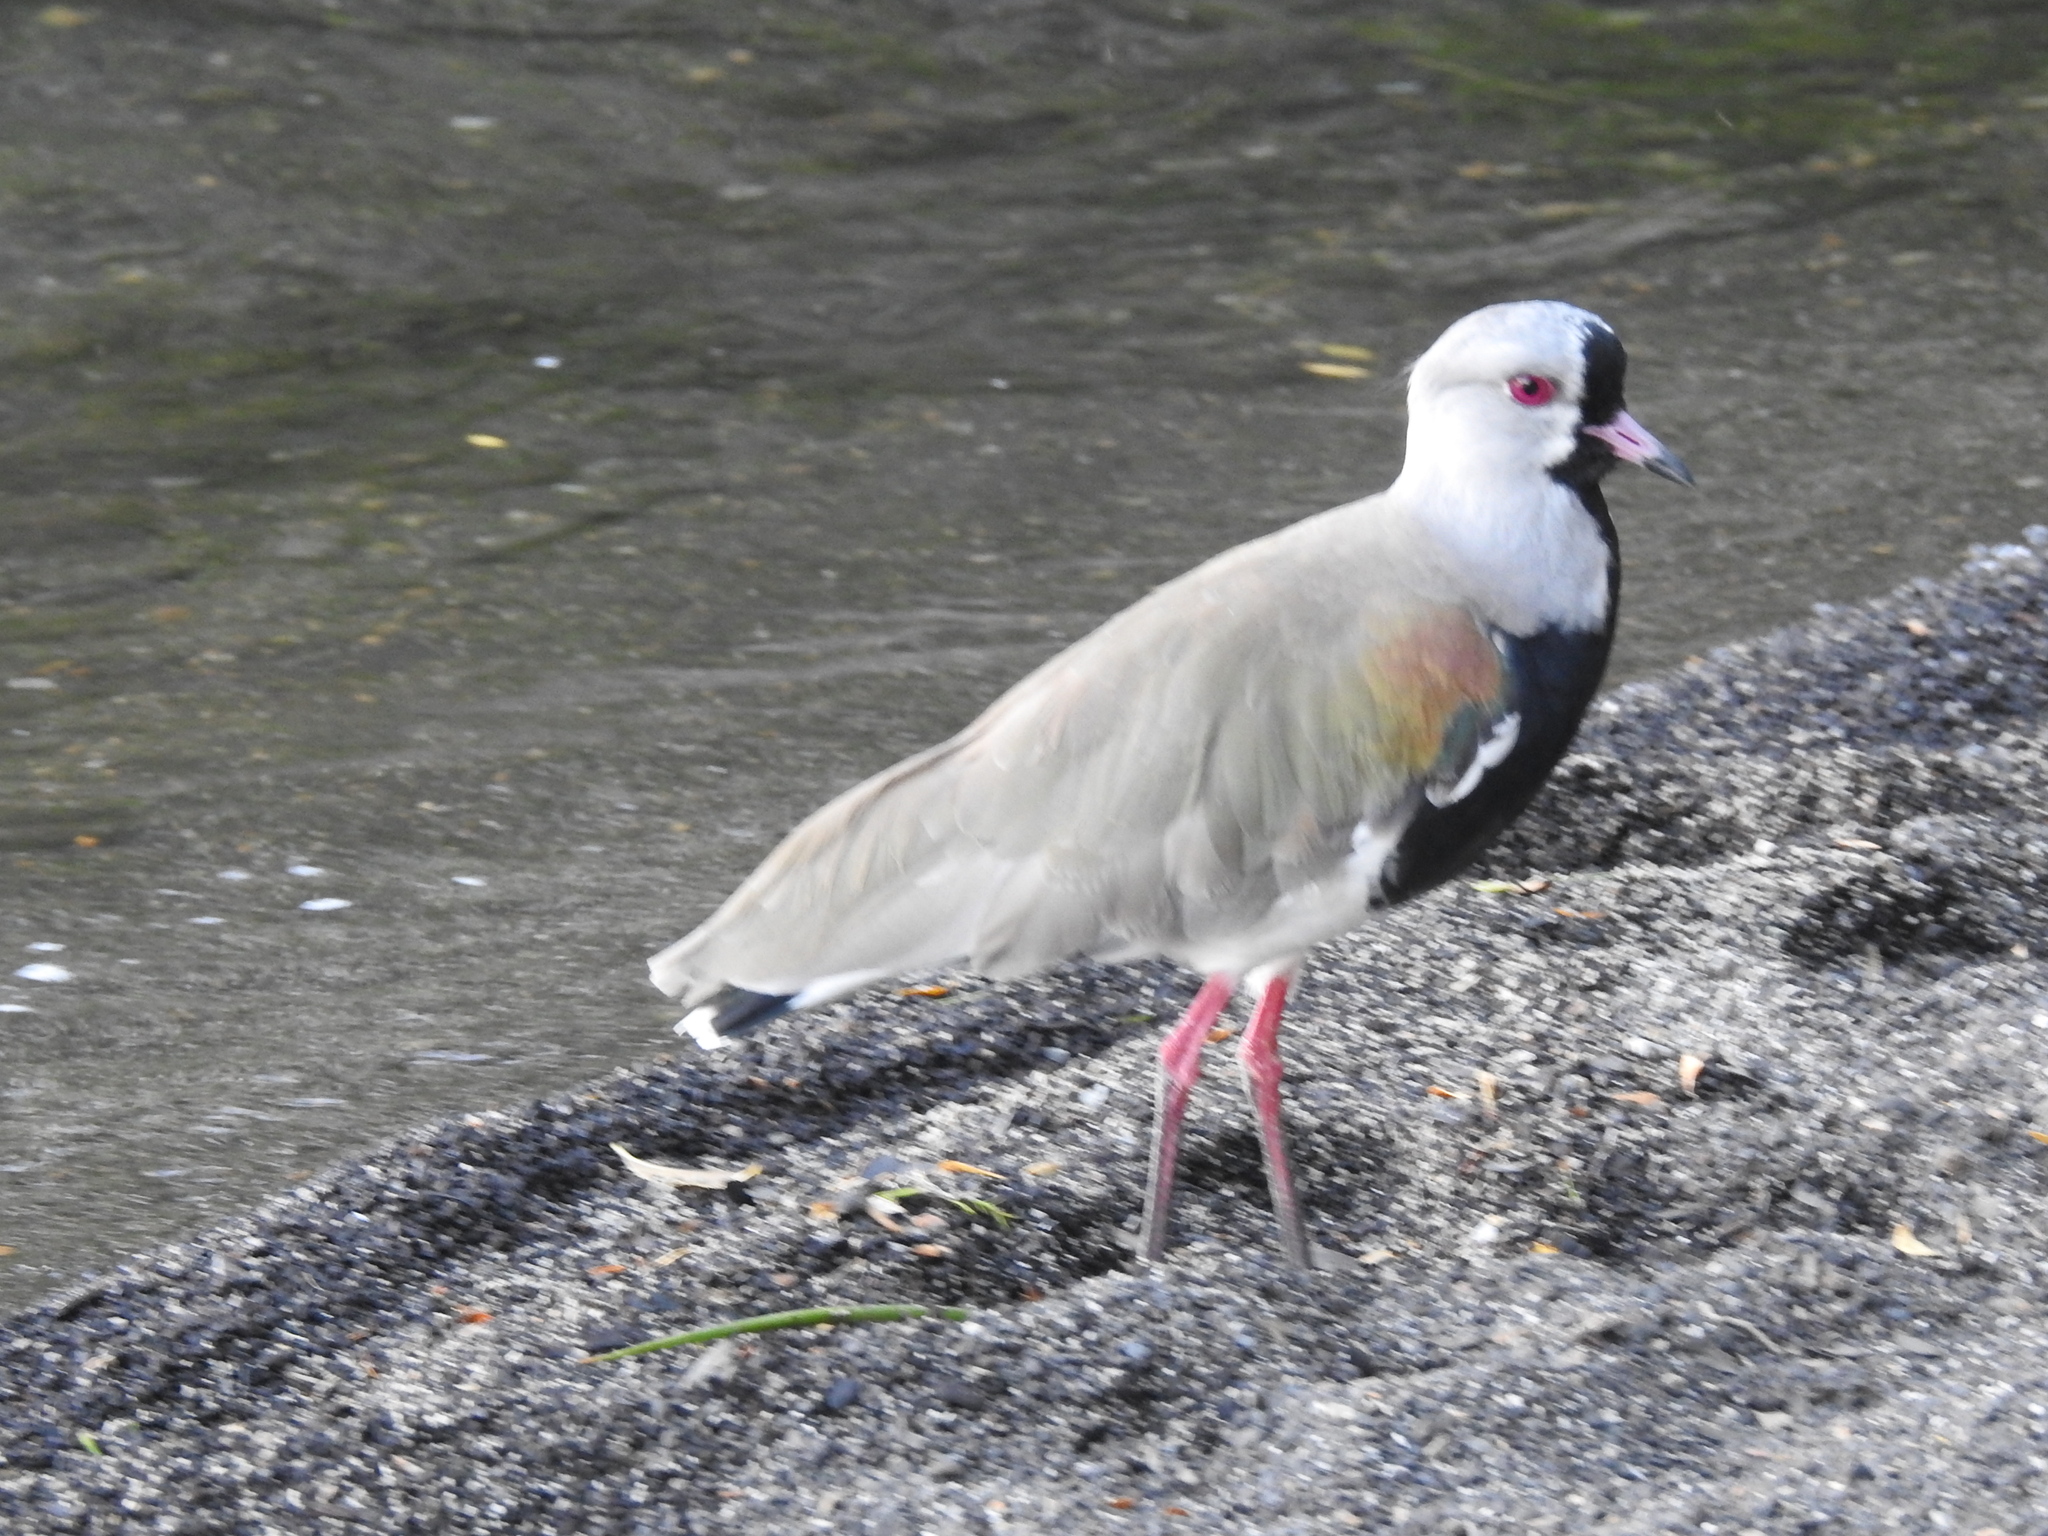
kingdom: Animalia
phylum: Chordata
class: Aves
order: Charadriiformes
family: Charadriidae
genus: Vanellus
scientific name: Vanellus chilensis
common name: Southern lapwing
